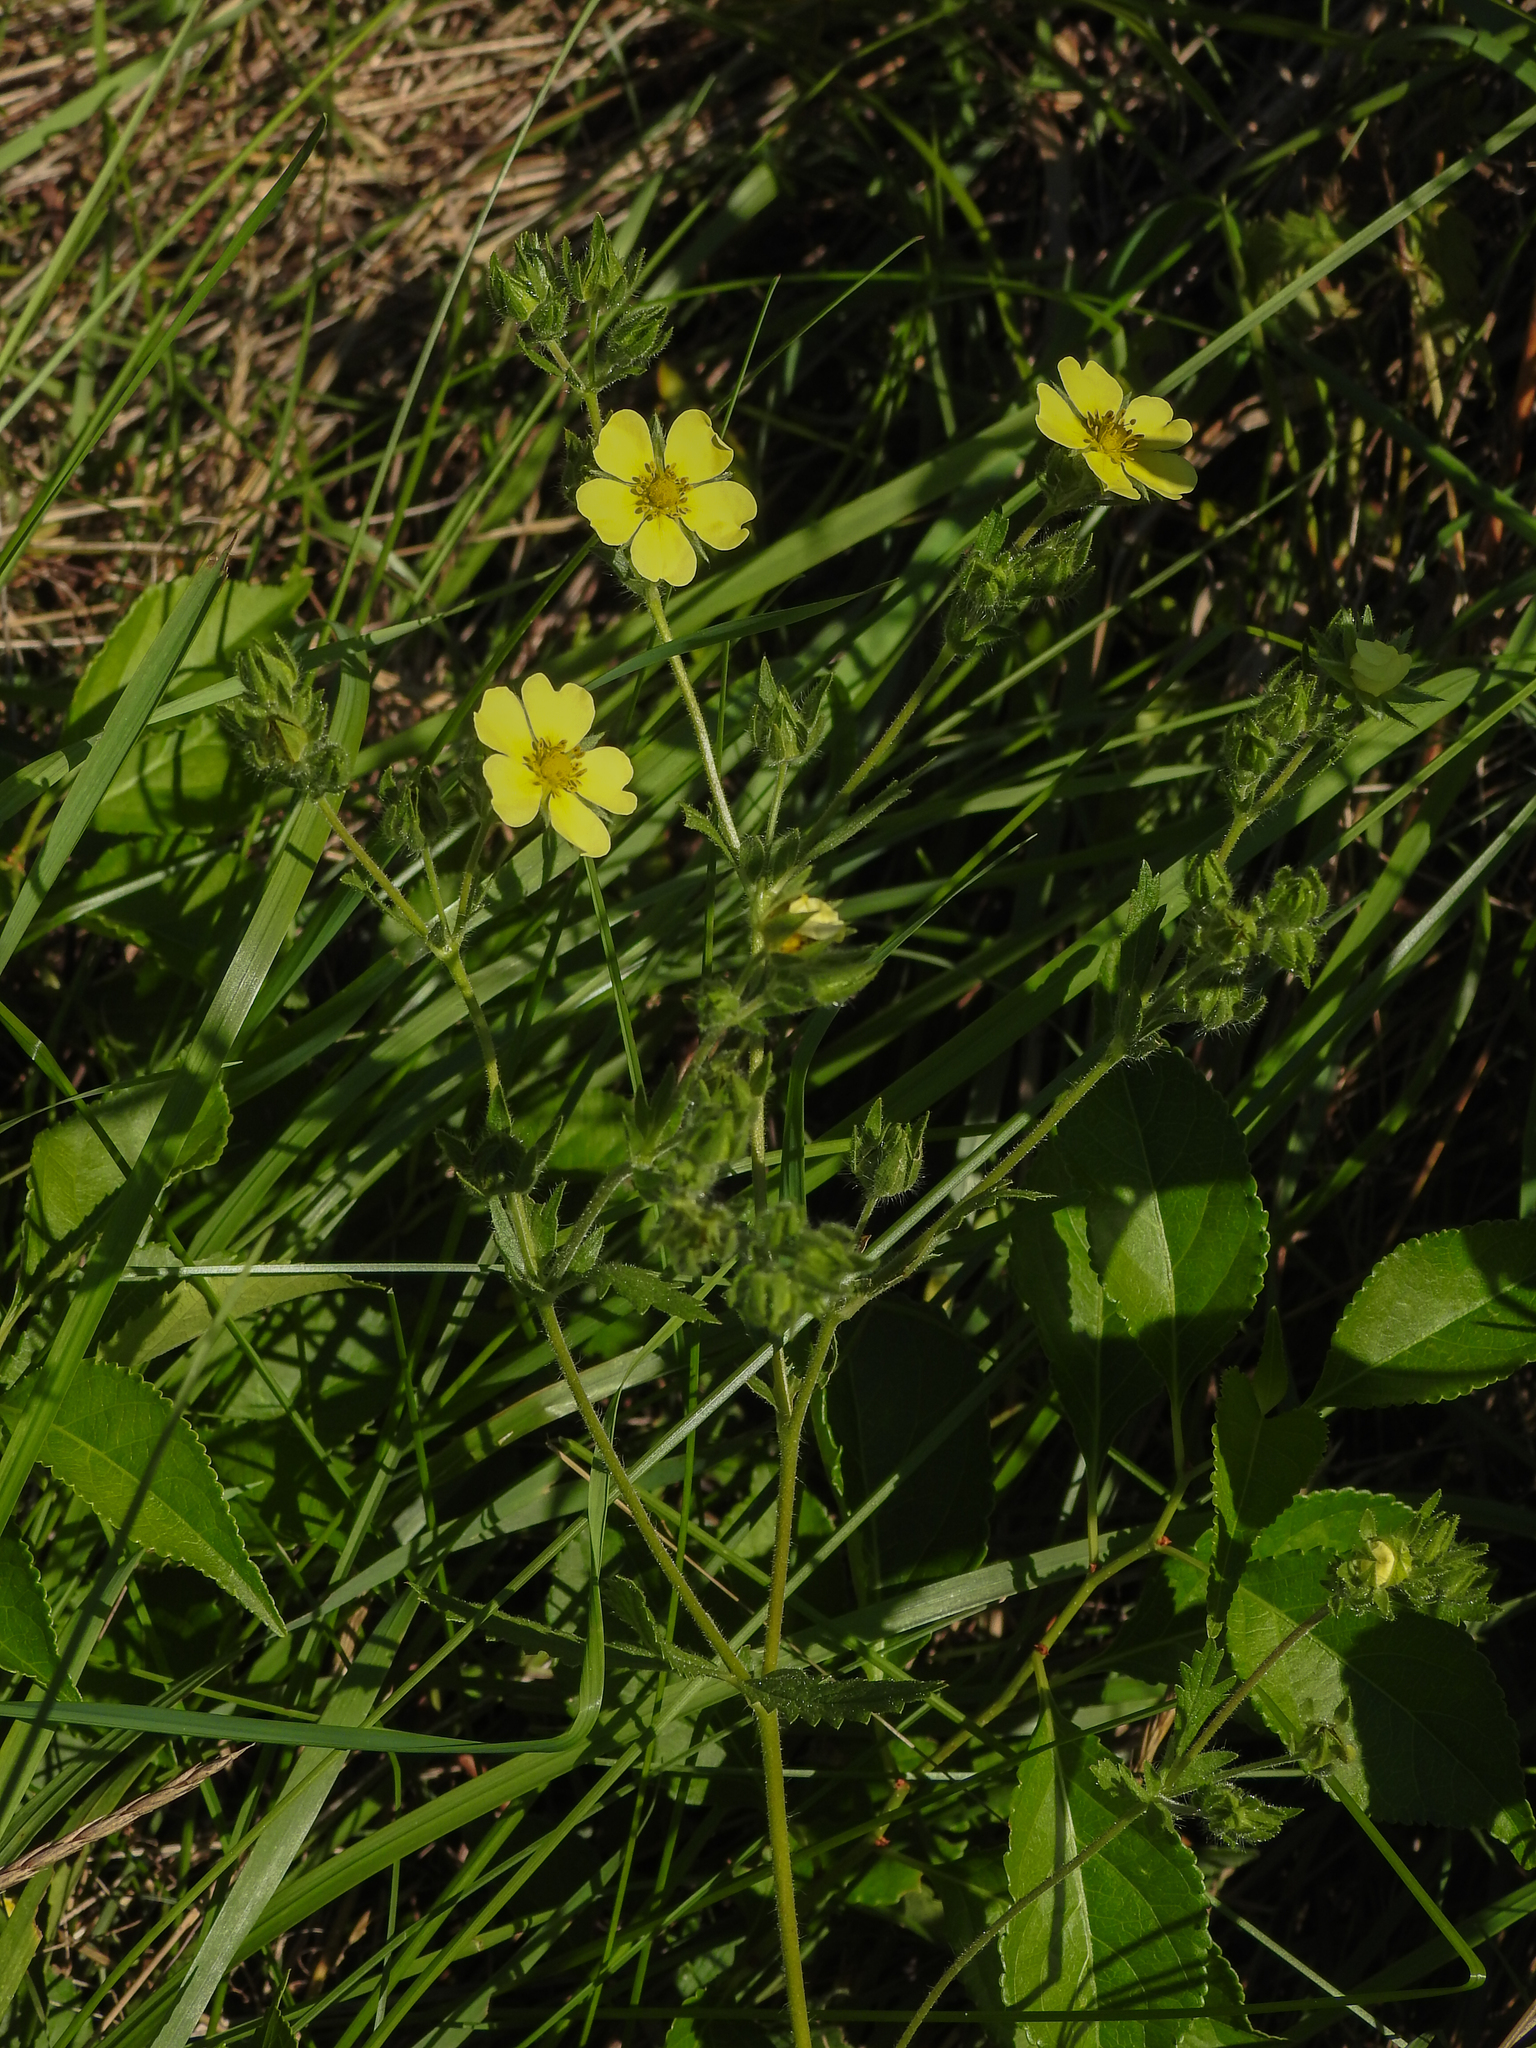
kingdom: Plantae
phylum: Tracheophyta
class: Magnoliopsida
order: Rosales
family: Rosaceae
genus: Potentilla
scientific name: Potentilla recta
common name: Sulphur cinquefoil
